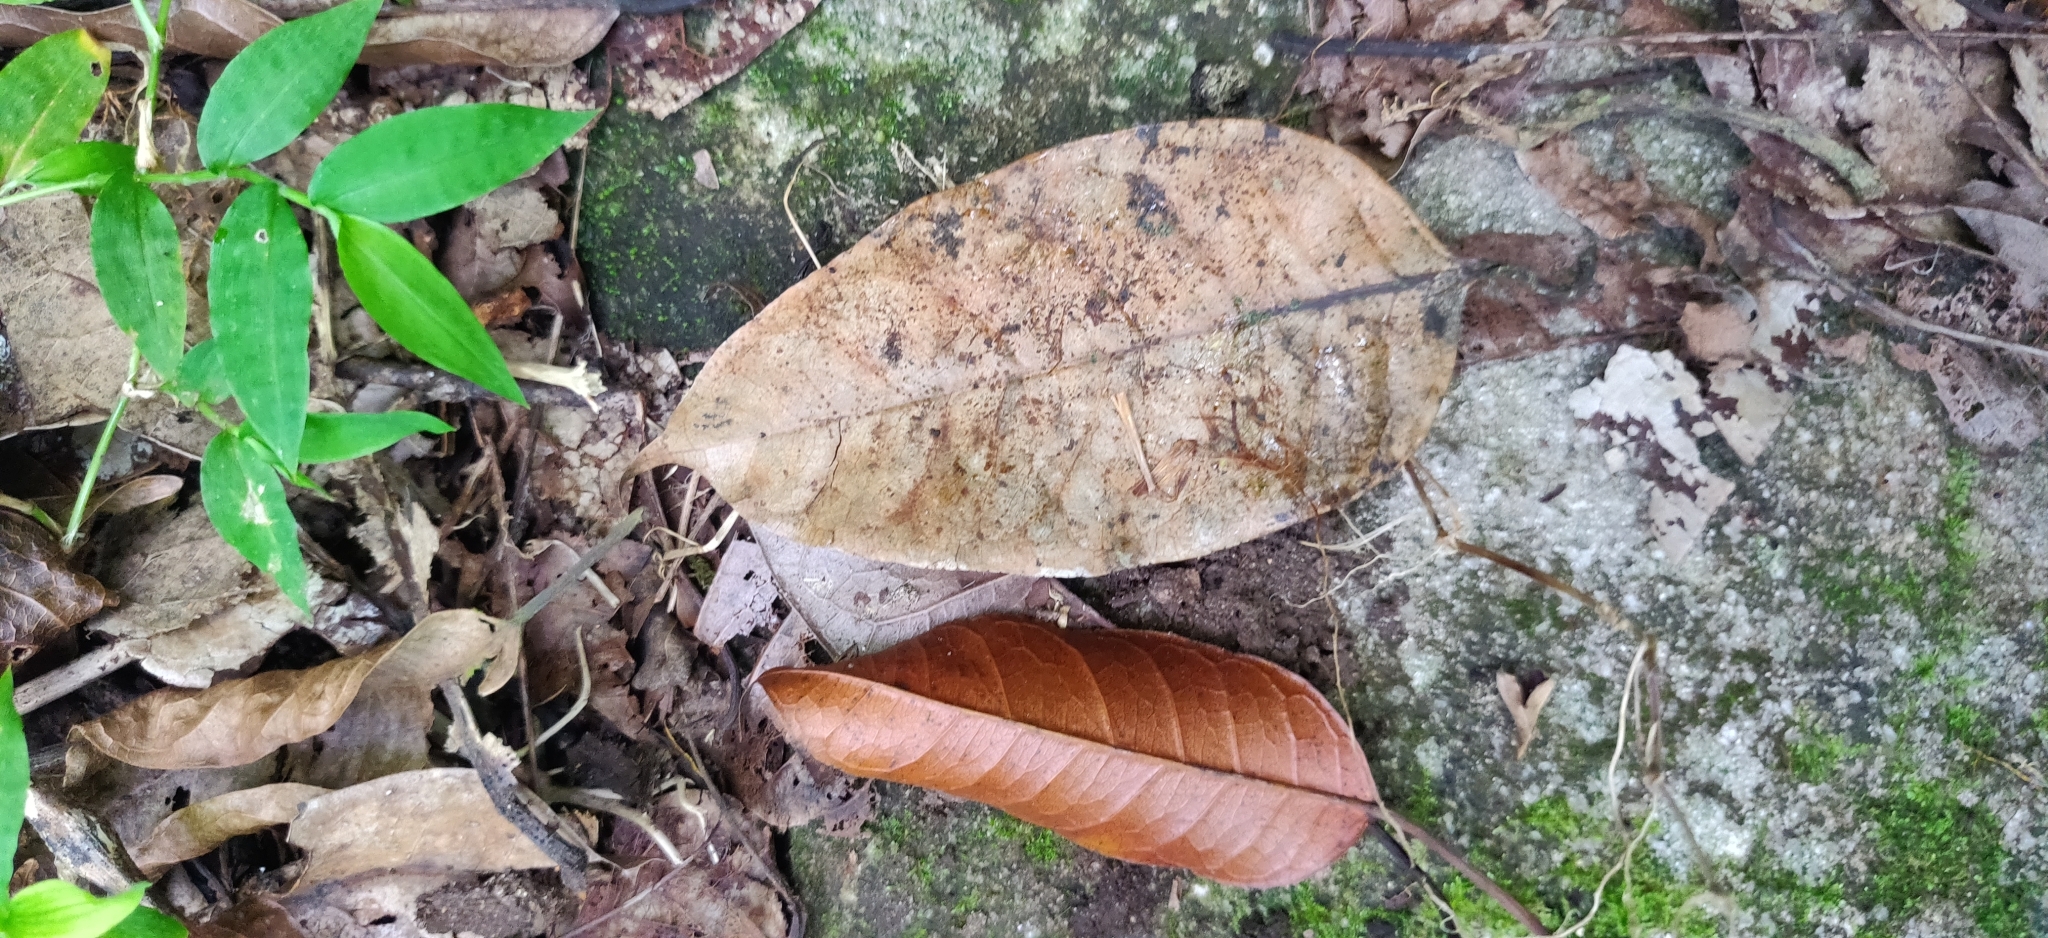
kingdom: Plantae
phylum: Tracheophyta
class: Magnoliopsida
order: Rosales
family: Moraceae
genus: Ficus
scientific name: Ficus nervosa
